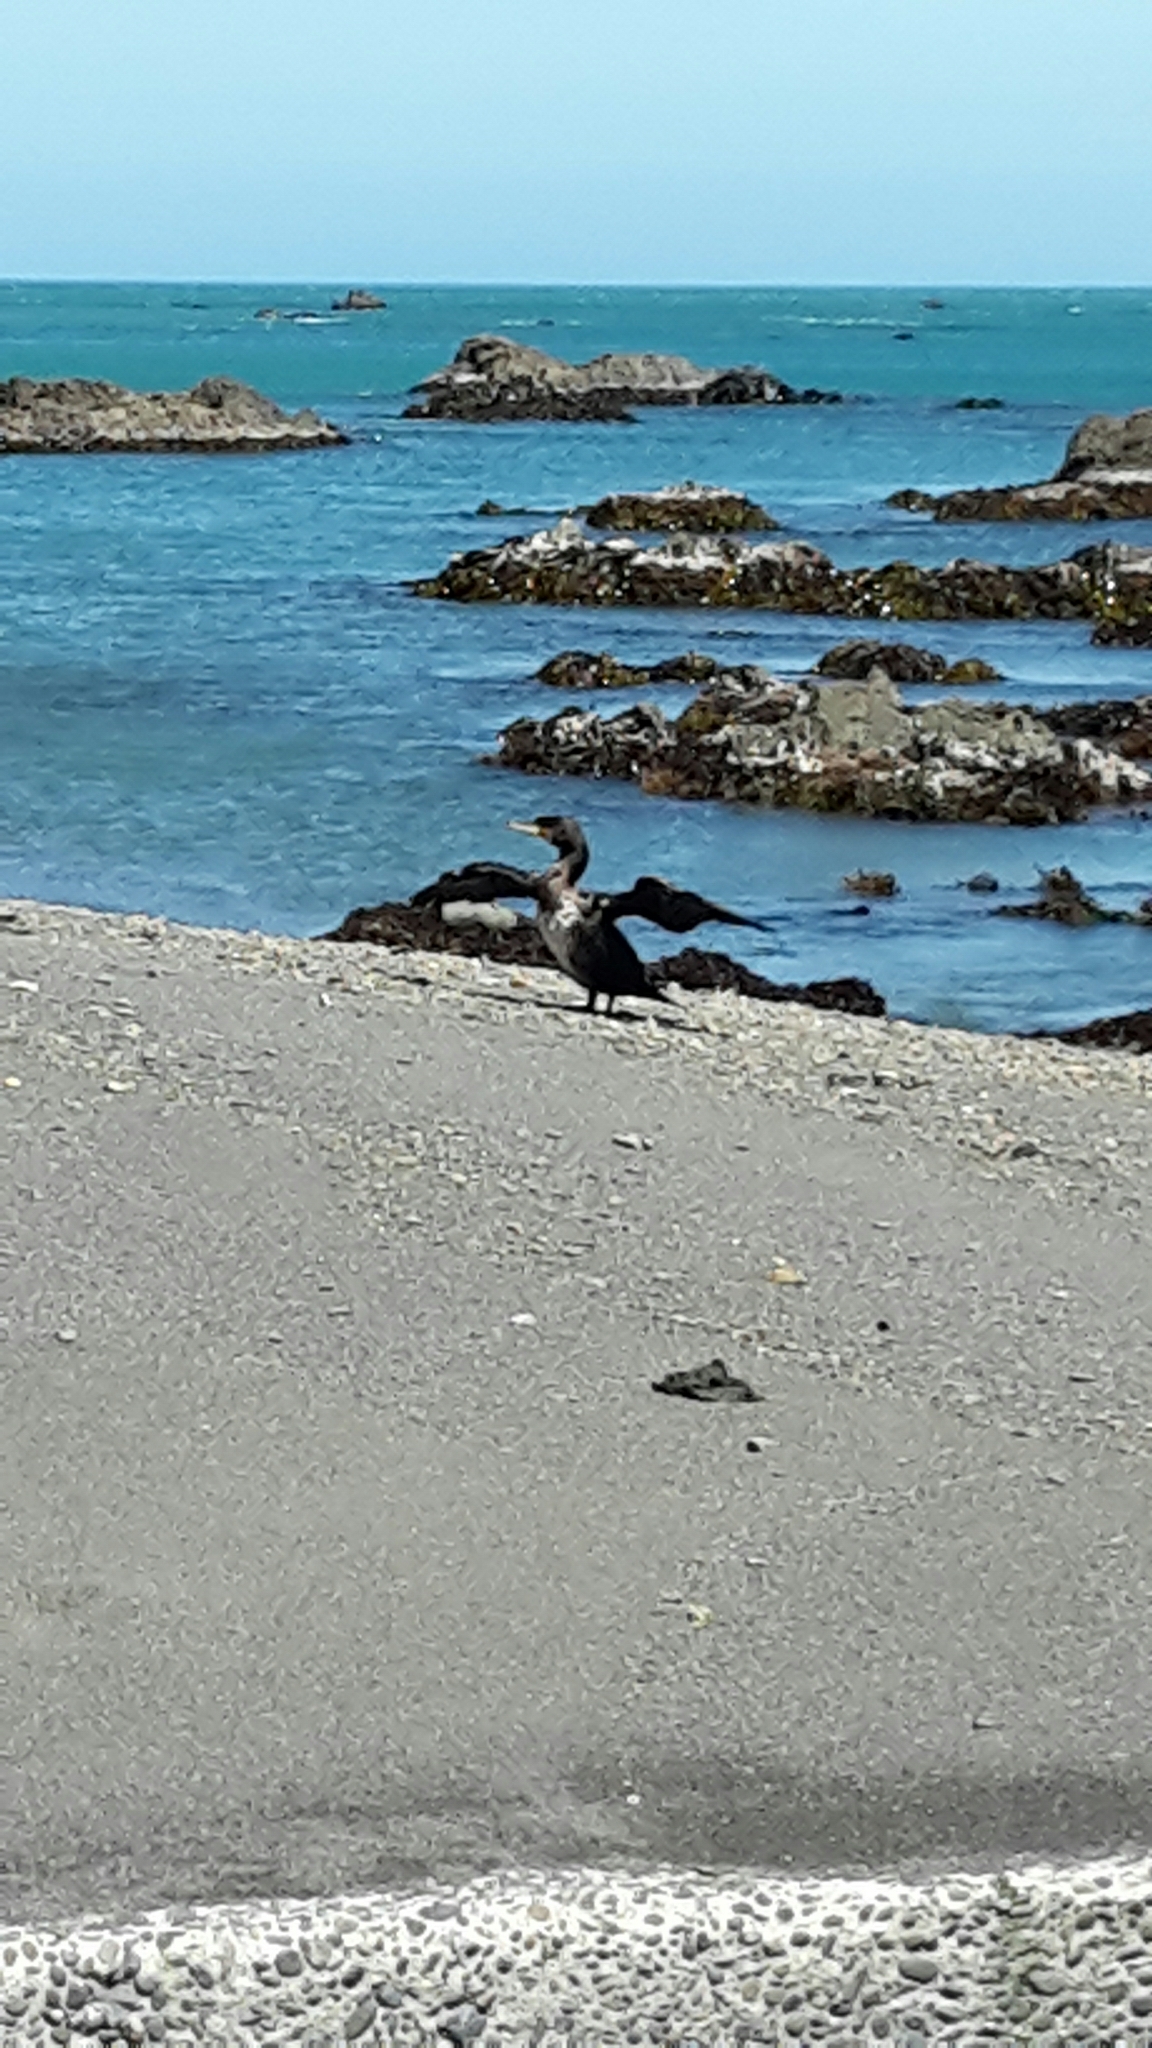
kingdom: Animalia
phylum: Chordata
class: Aves
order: Suliformes
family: Phalacrocoracidae
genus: Phalacrocorax
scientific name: Phalacrocorax varius
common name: Pied cormorant
